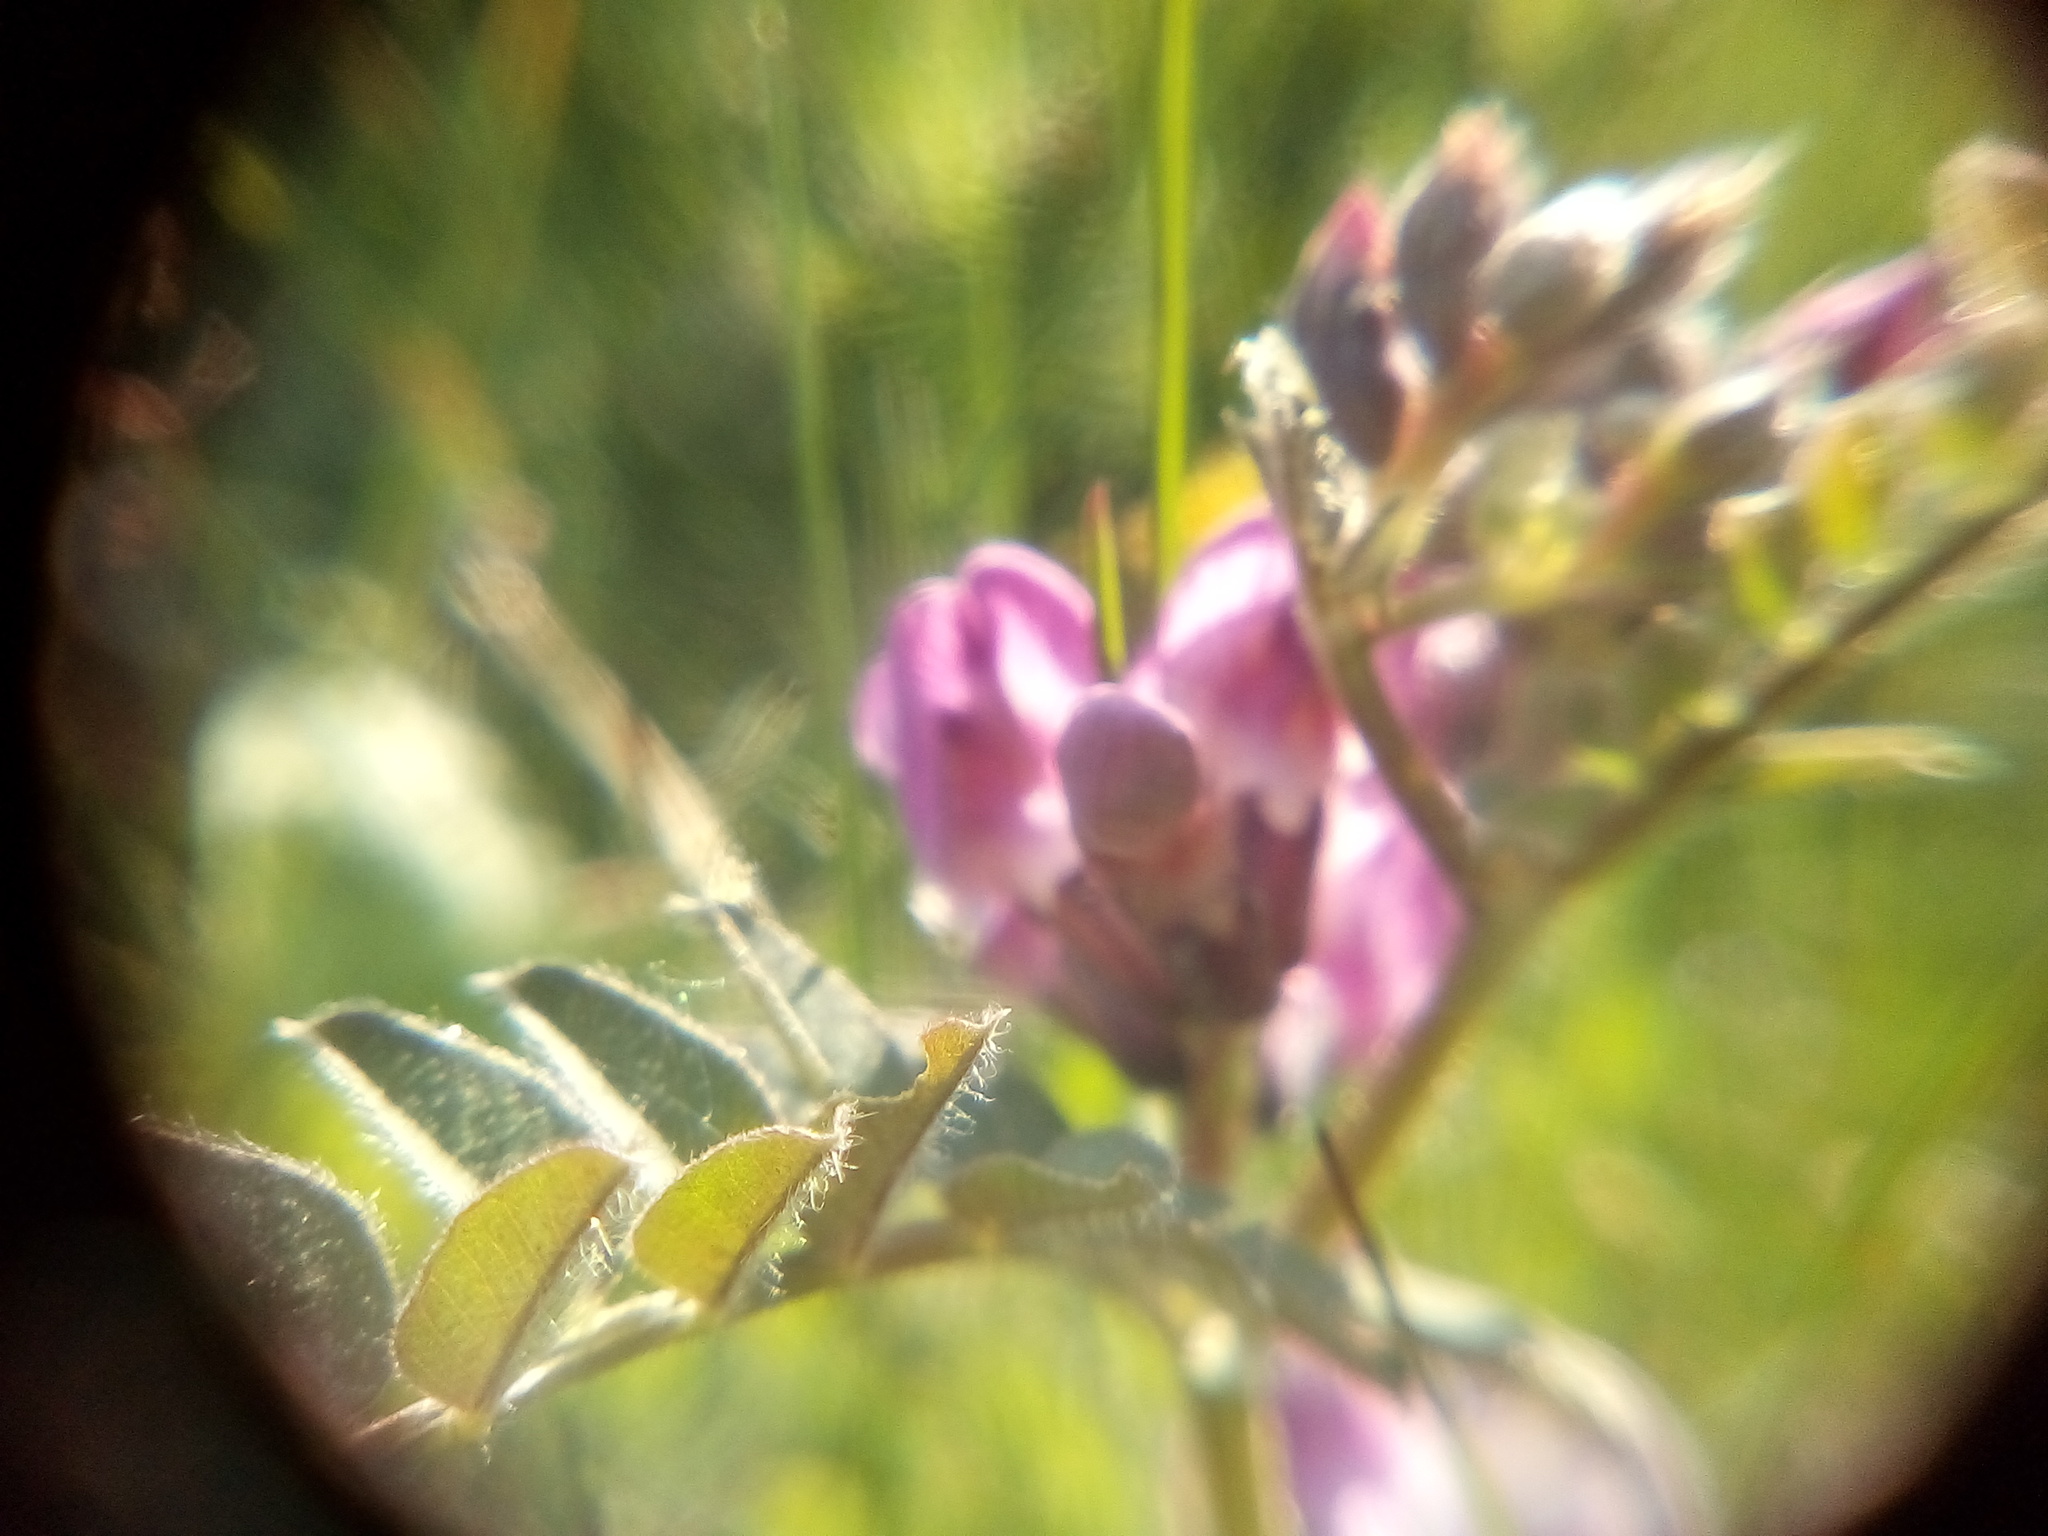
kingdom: Plantae
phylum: Tracheophyta
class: Magnoliopsida
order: Fabales
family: Fabaceae
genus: Vicia
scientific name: Vicia sepium
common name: Bush vetch
